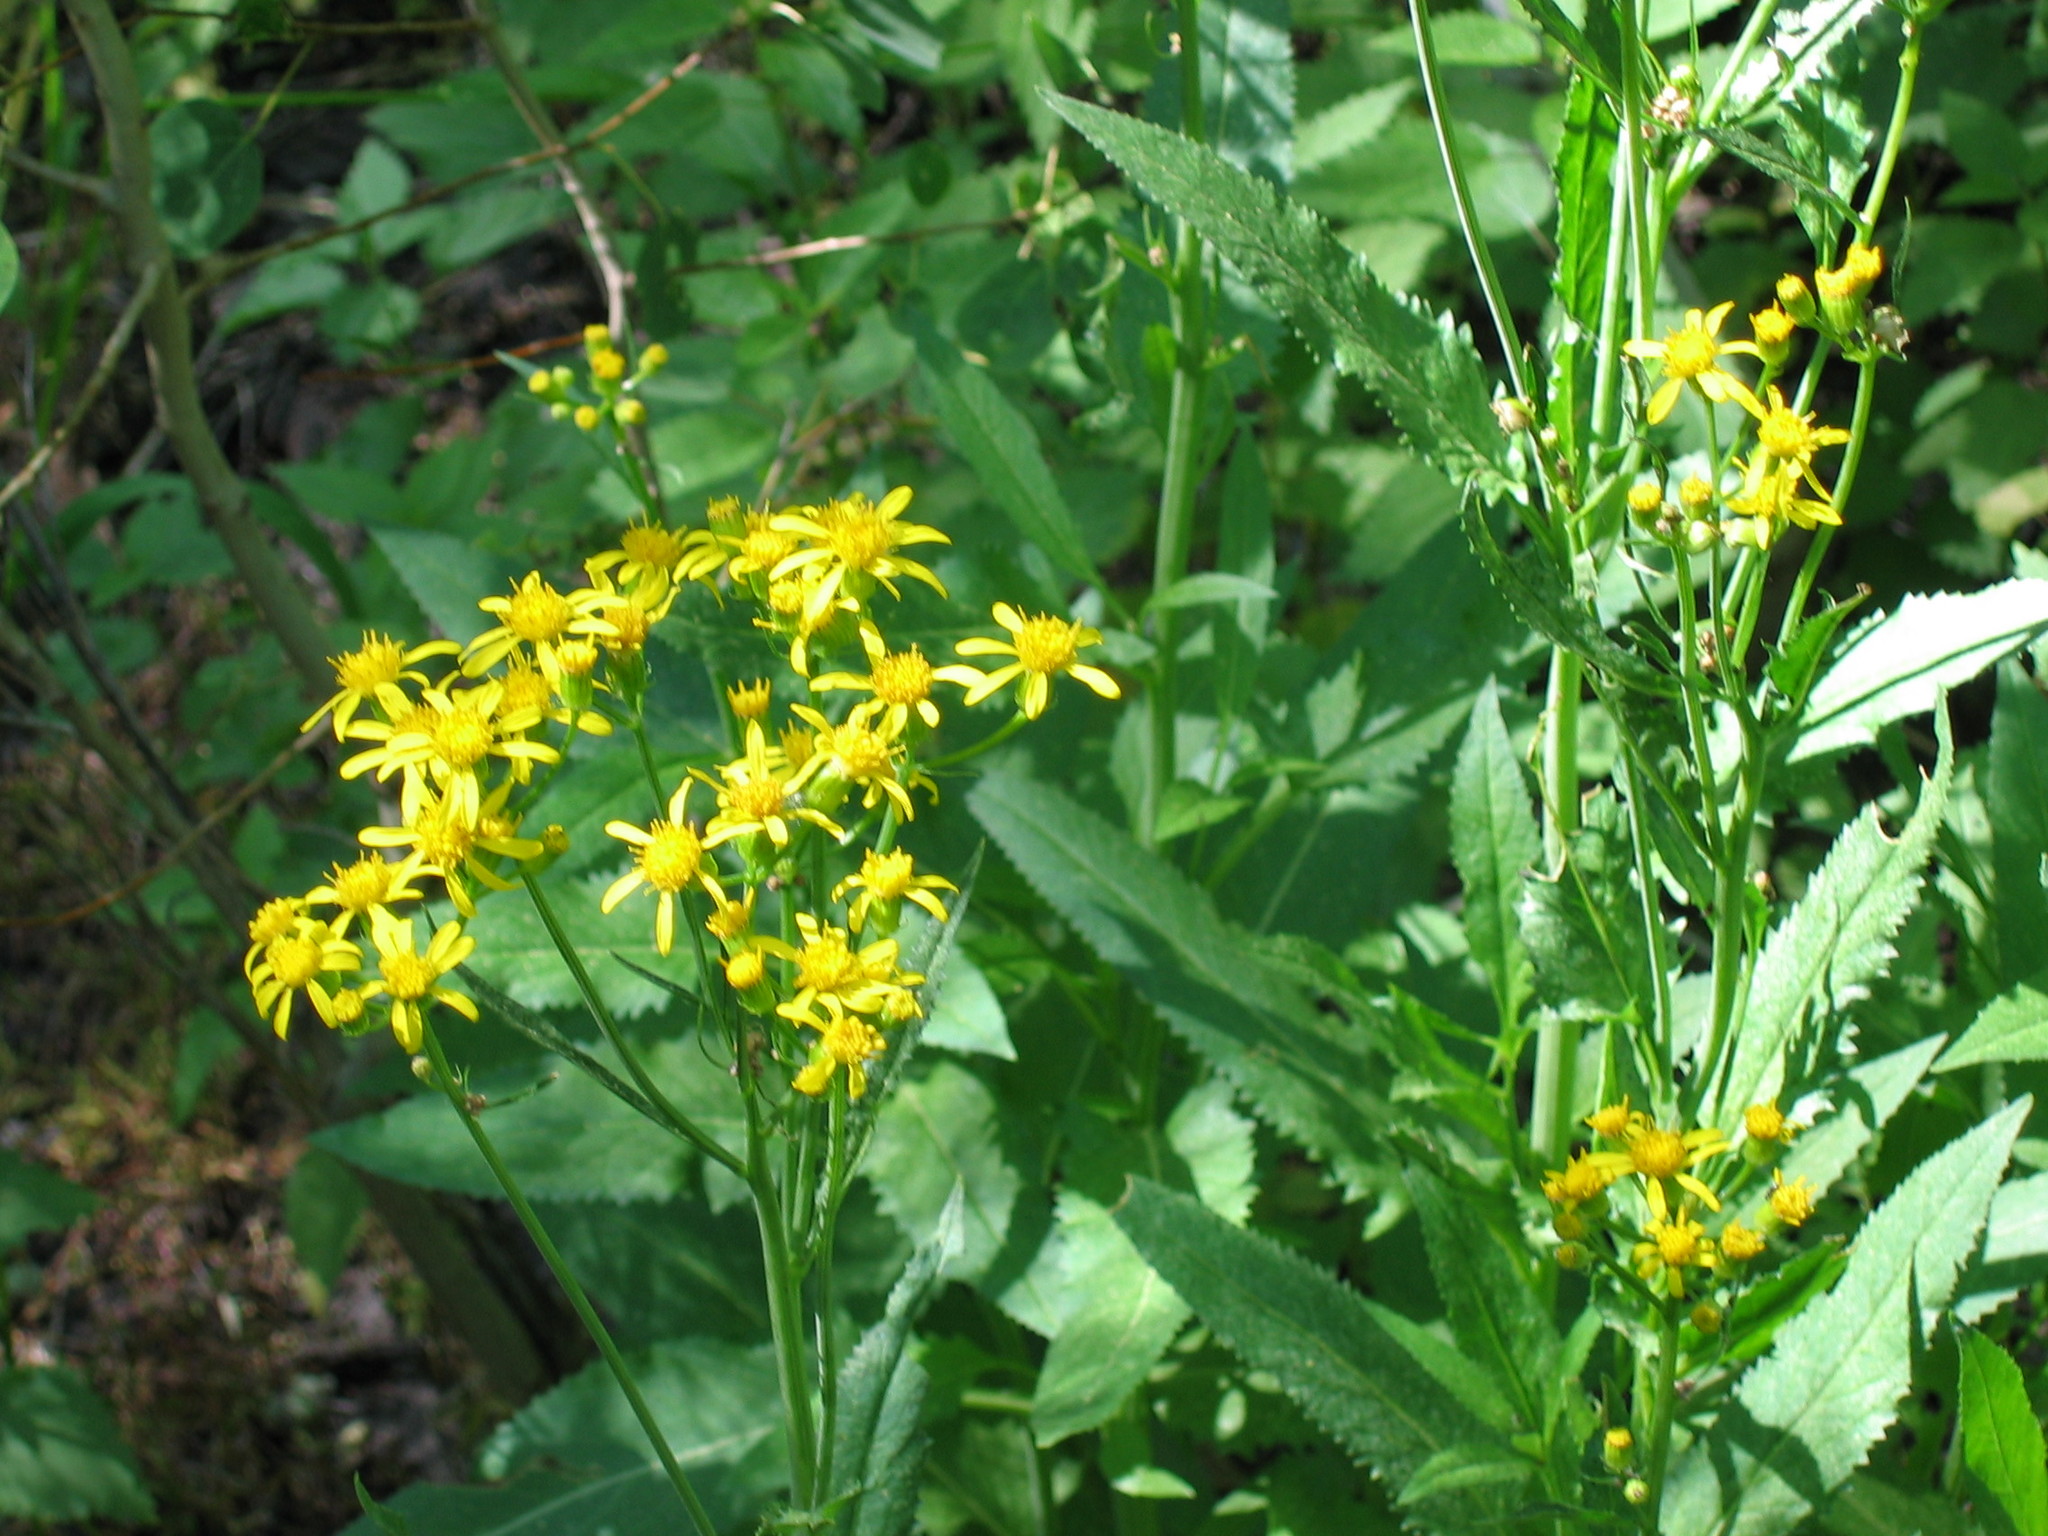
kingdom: Plantae
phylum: Tracheophyta
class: Magnoliopsida
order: Asterales
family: Asteraceae
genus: Senecio
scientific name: Senecio triangularis
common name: Arrowleaf butterweed
